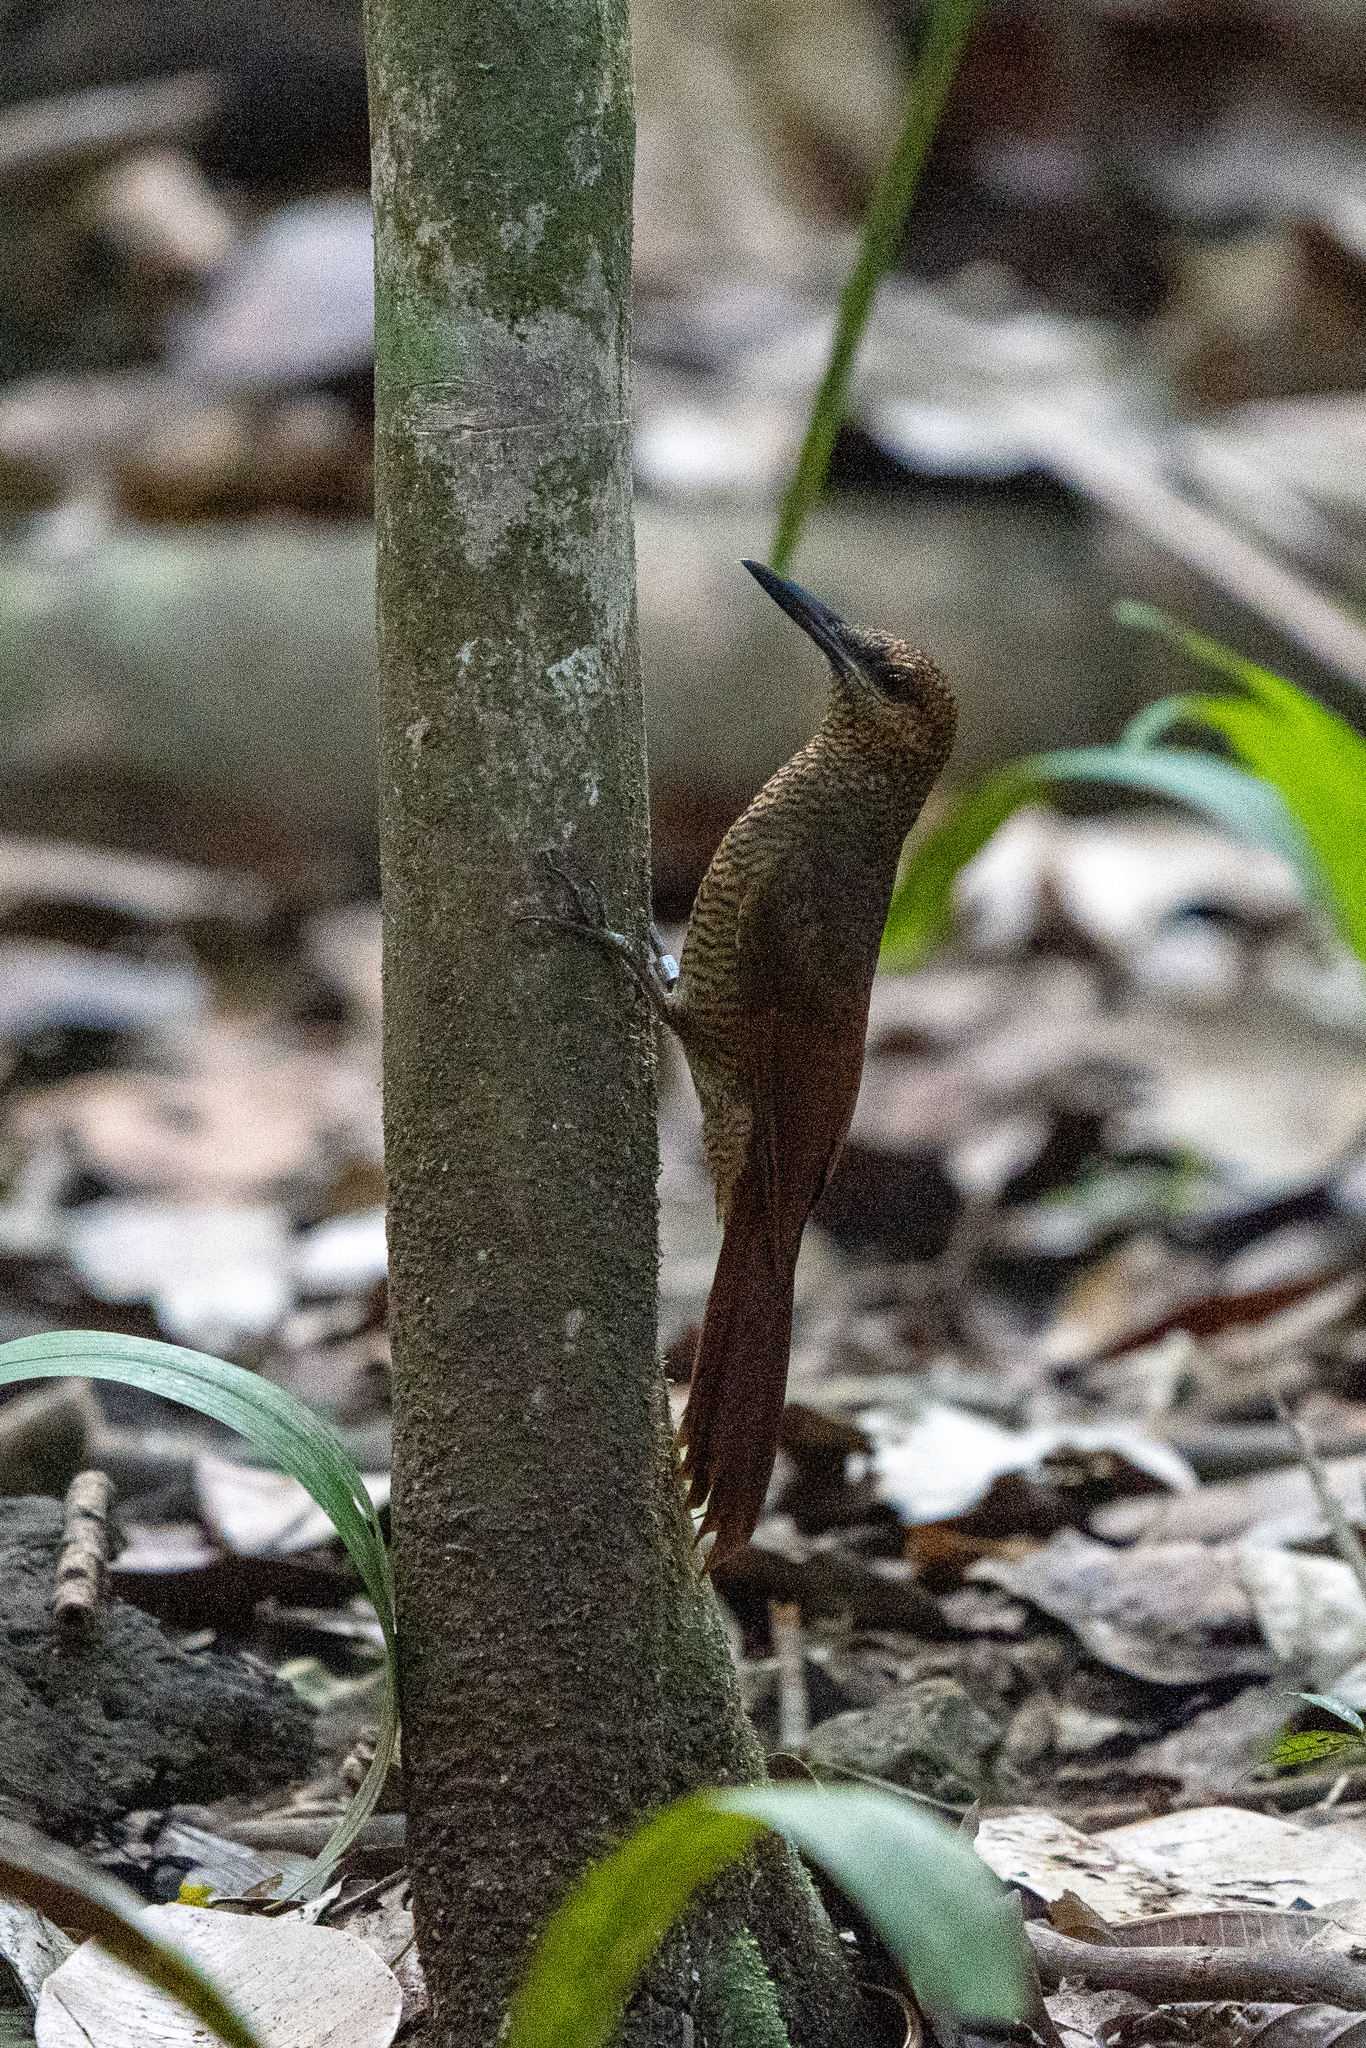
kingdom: Animalia
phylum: Chordata
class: Aves
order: Passeriformes
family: Furnariidae
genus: Dendrocolaptes
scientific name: Dendrocolaptes sanctithomae
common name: Northern barred-woodcreeper
